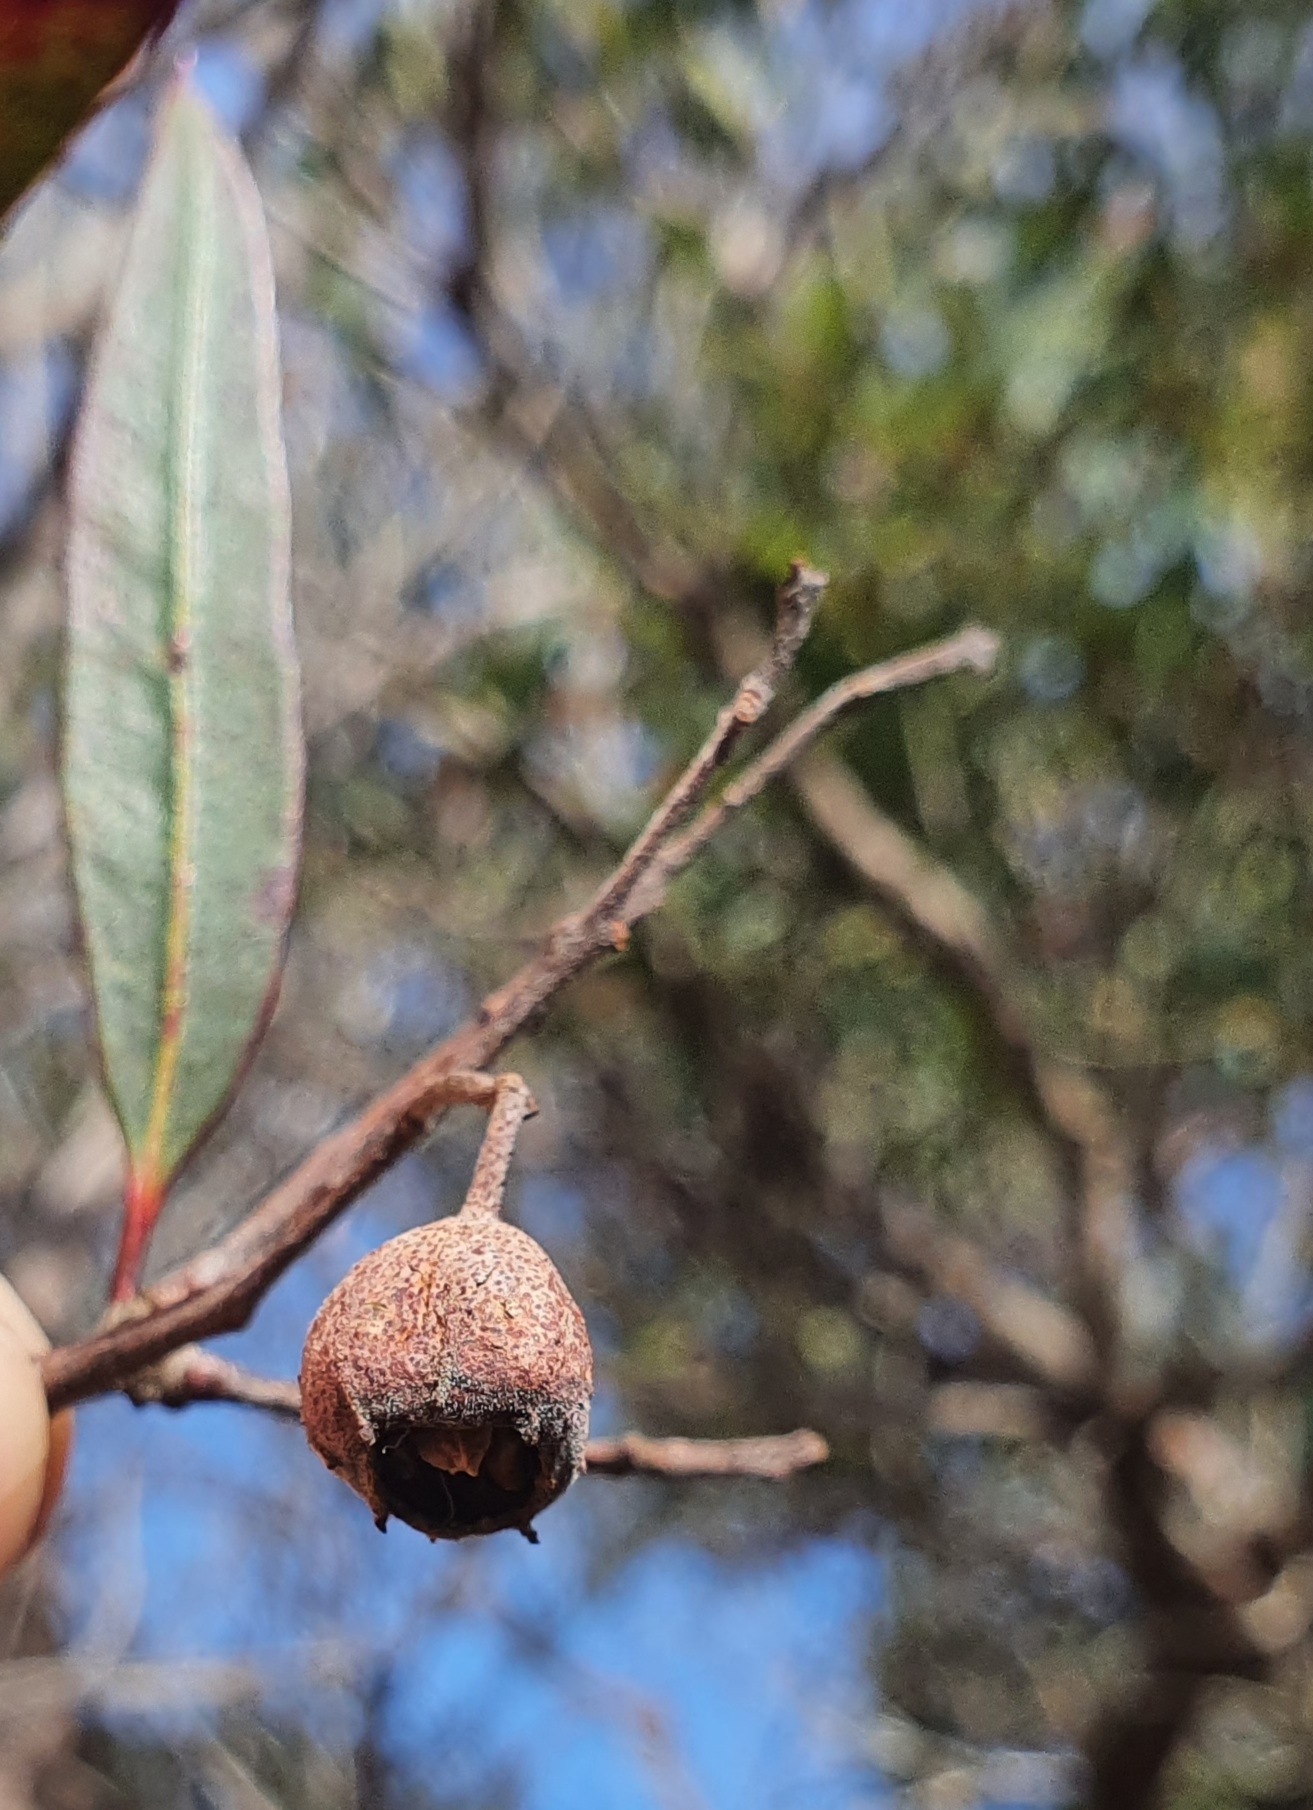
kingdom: Plantae
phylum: Tracheophyta
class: Magnoliopsida
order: Myrtales
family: Myrtaceae
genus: Angophora
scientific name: Angophora crassifolia
